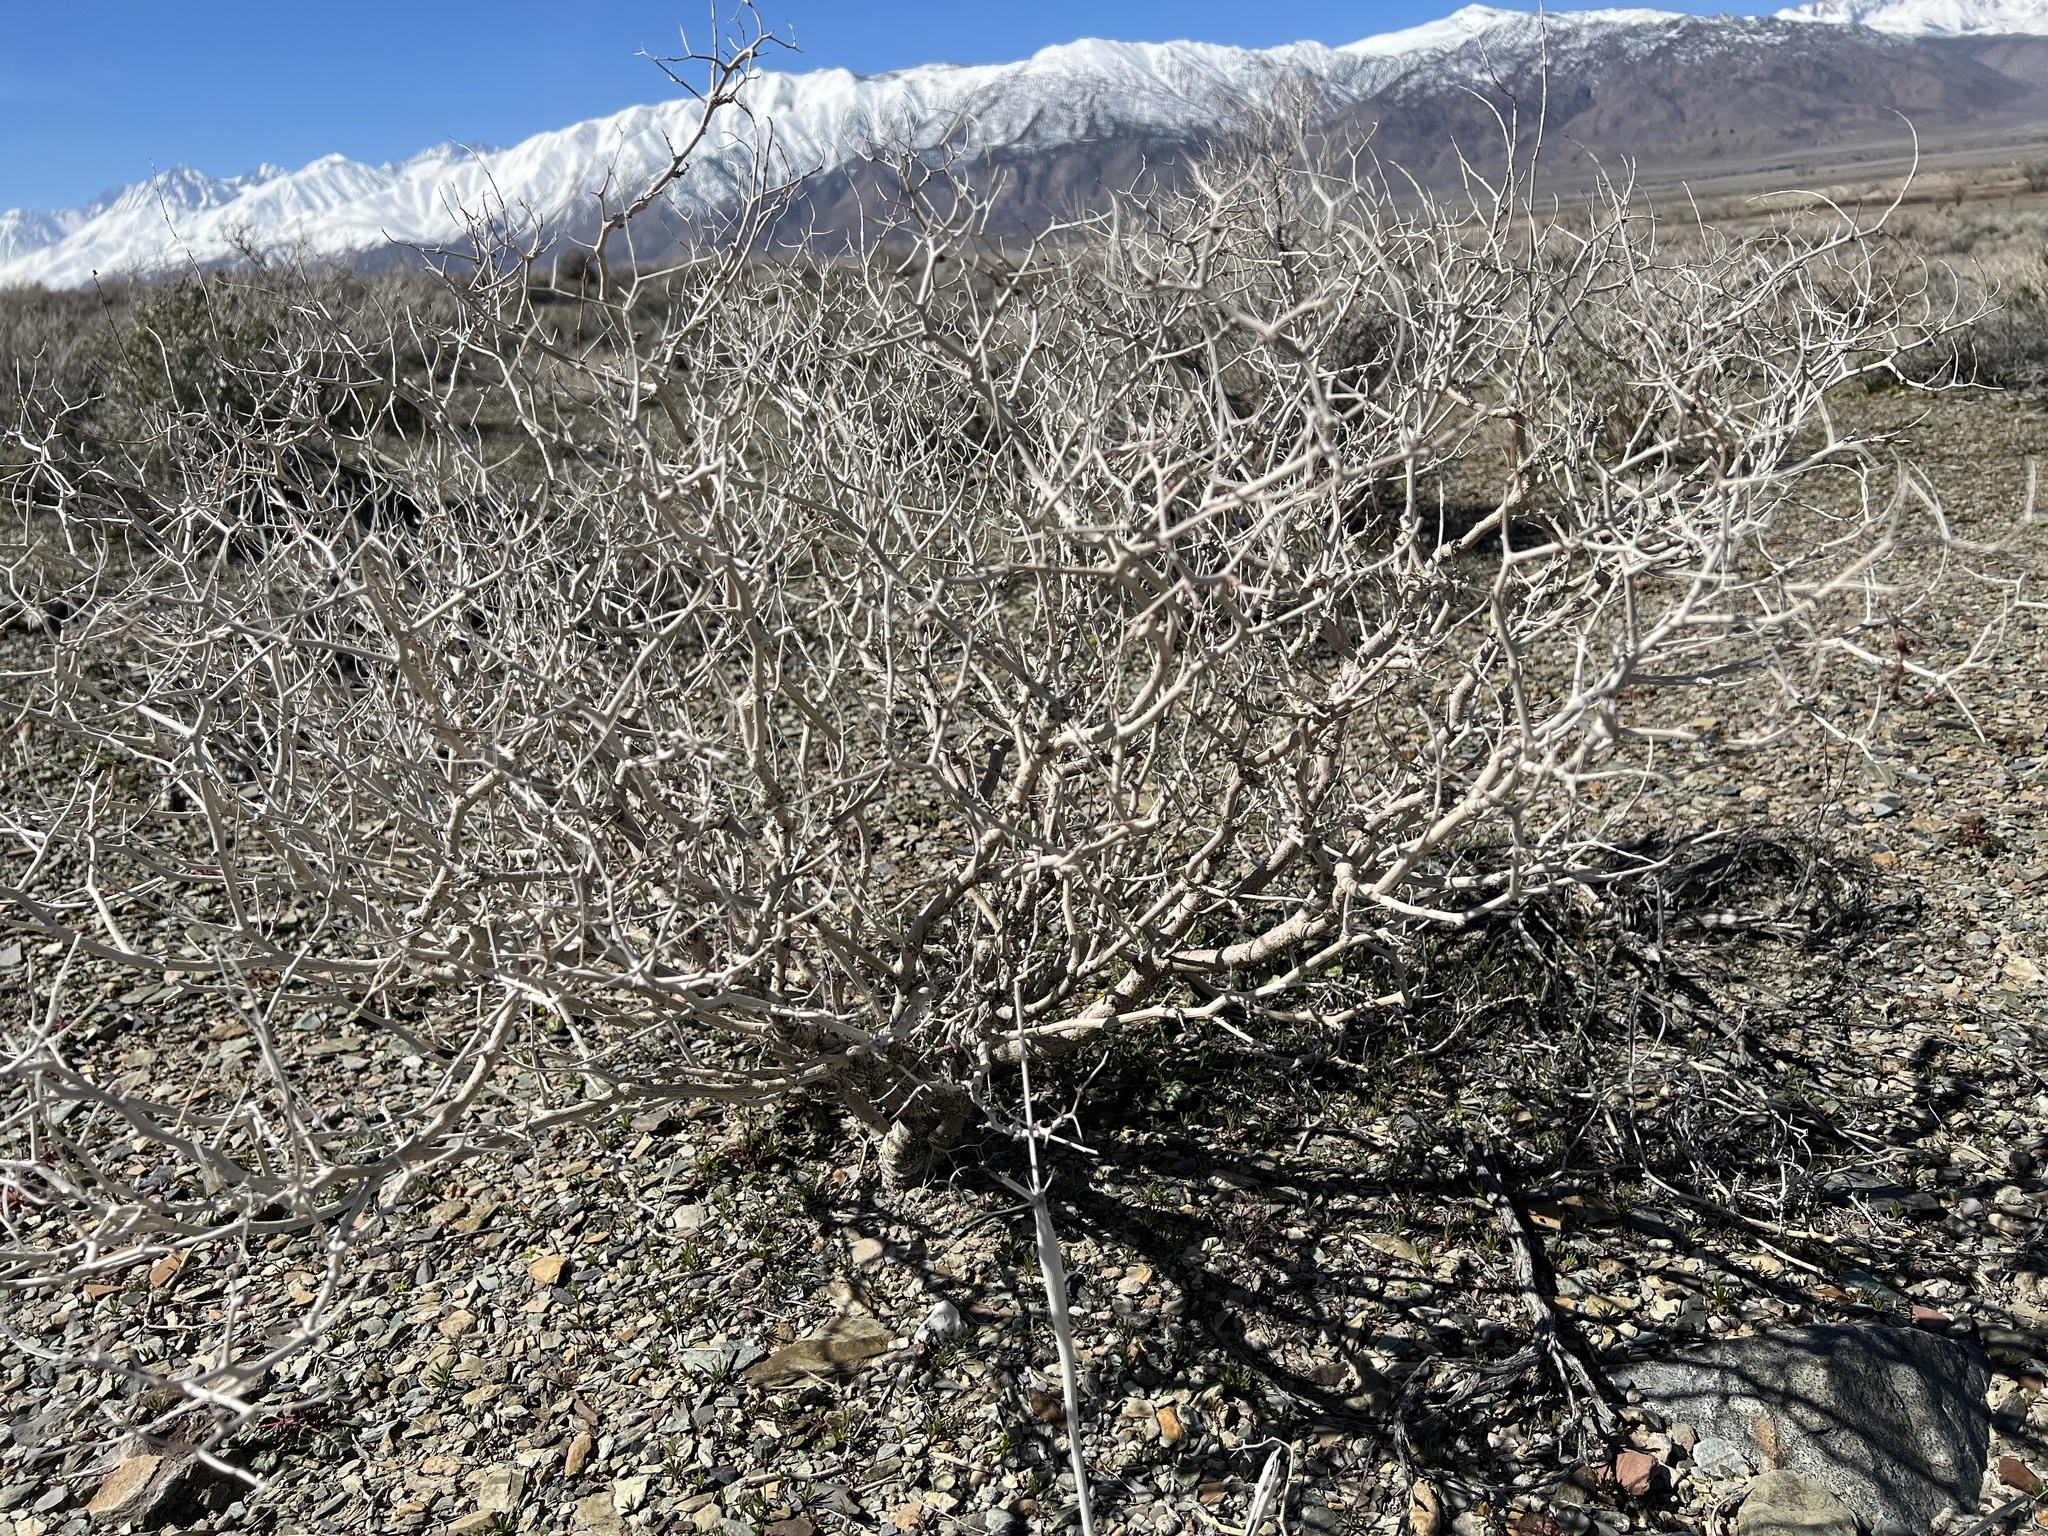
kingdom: Plantae
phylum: Tracheophyta
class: Magnoliopsida
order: Fabales
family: Fabaceae
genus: Psorothamnus
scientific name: Psorothamnus arborescens
